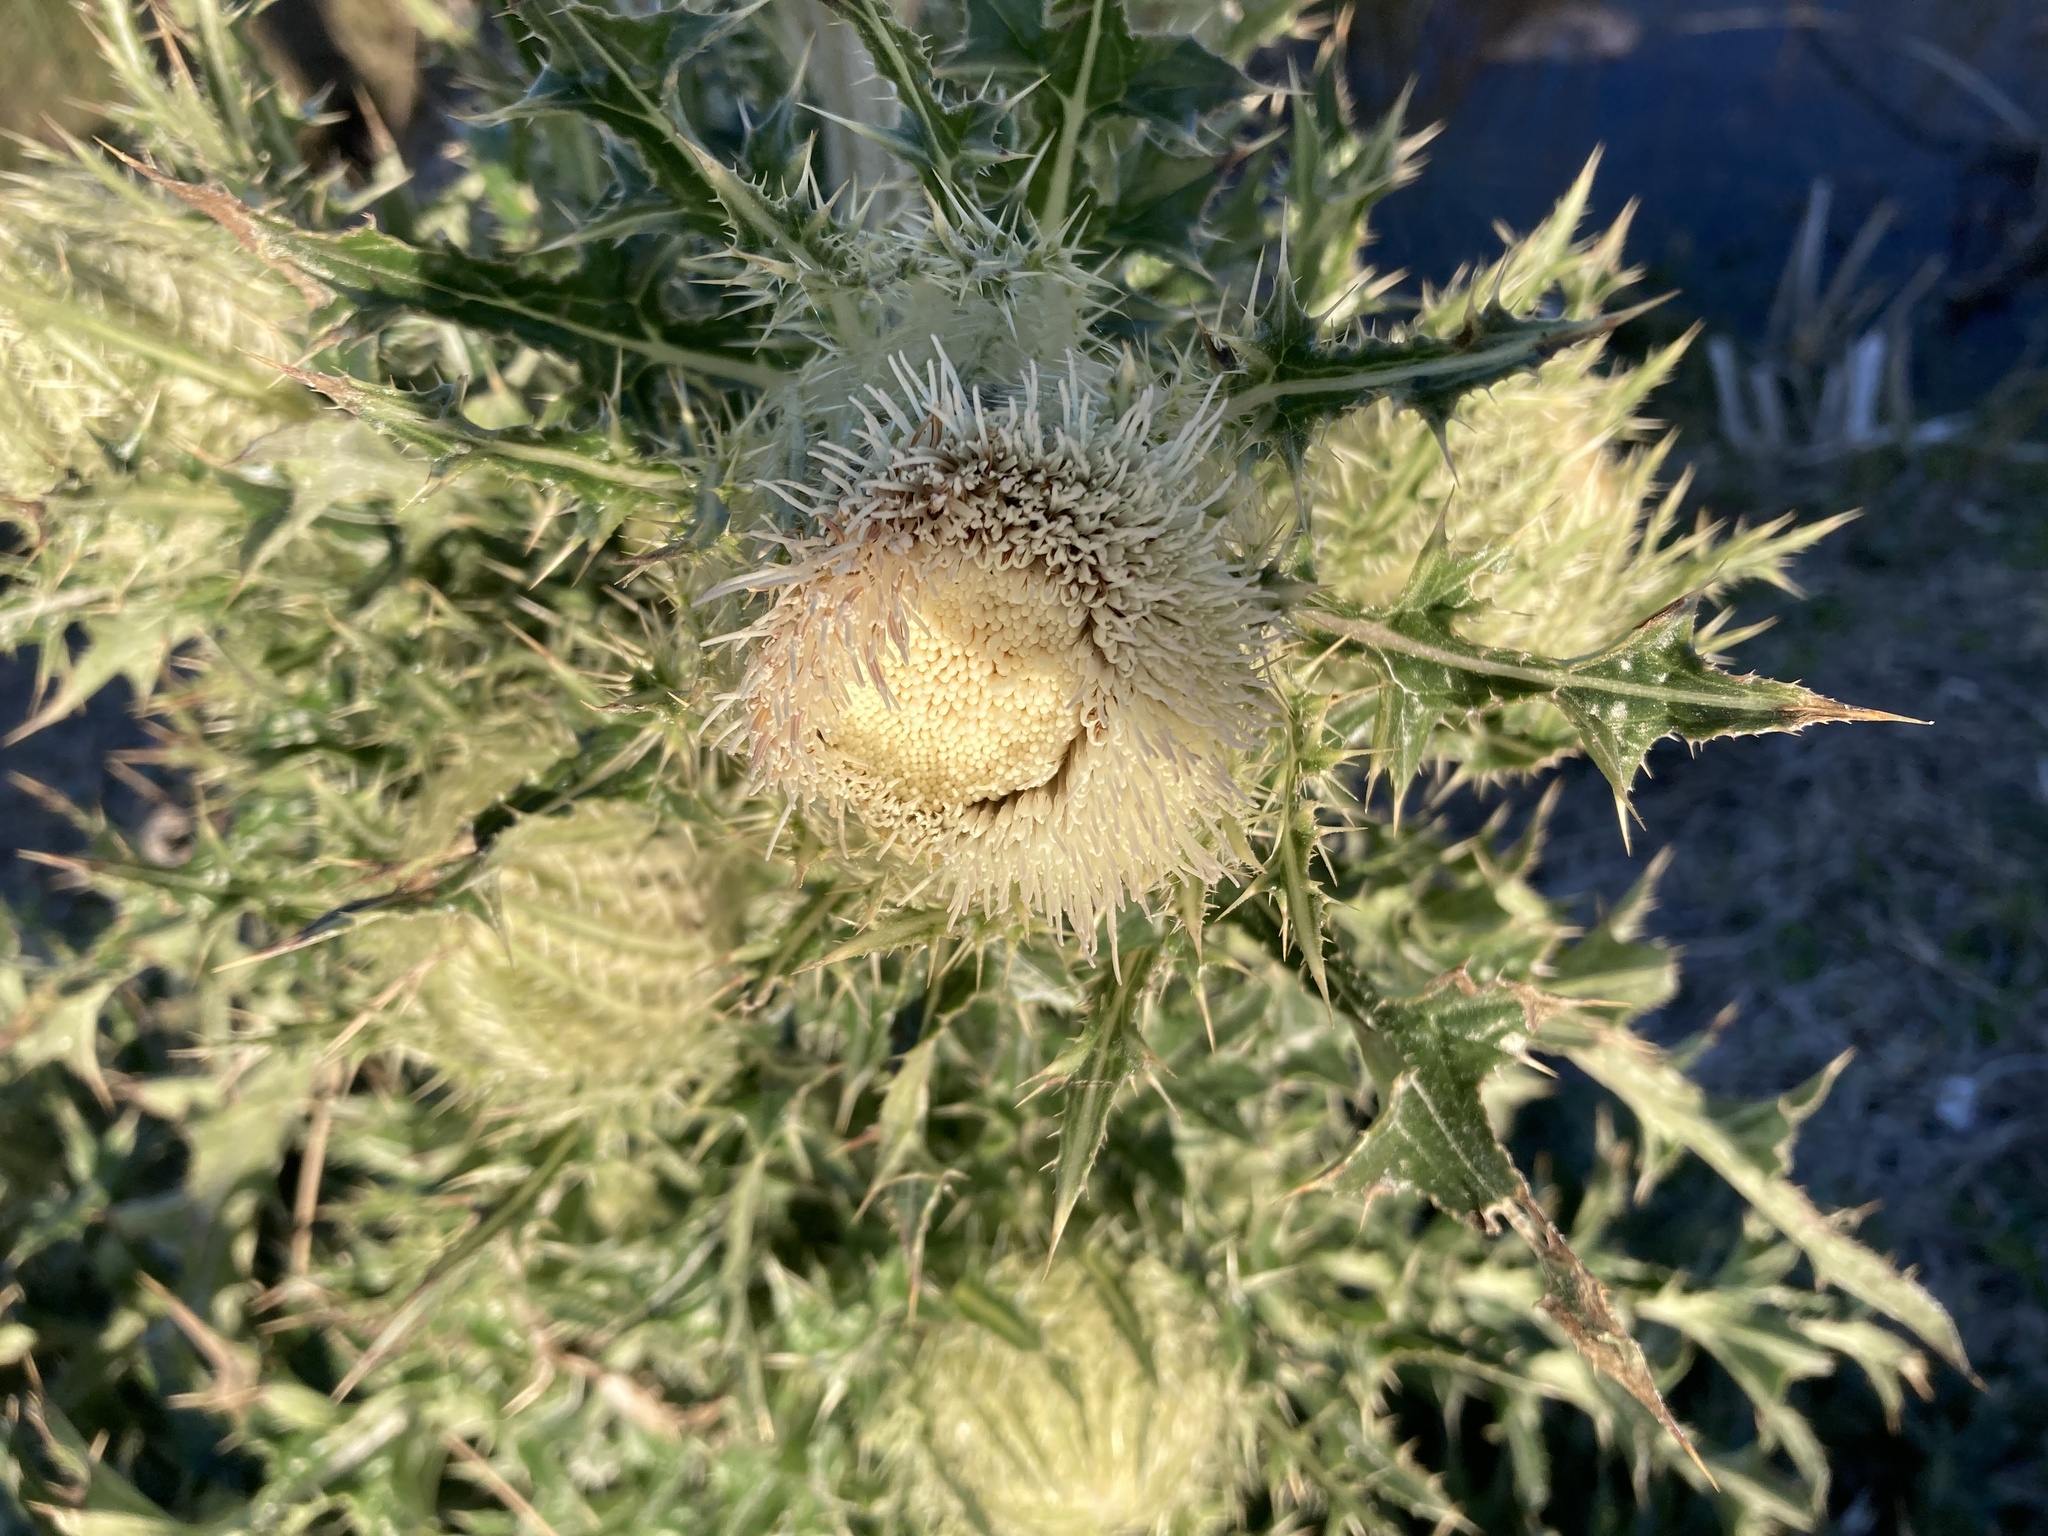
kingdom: Plantae
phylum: Tracheophyta
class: Magnoliopsida
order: Asterales
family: Asteraceae
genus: Cirsium
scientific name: Cirsium horridulum
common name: Bristly thistle
